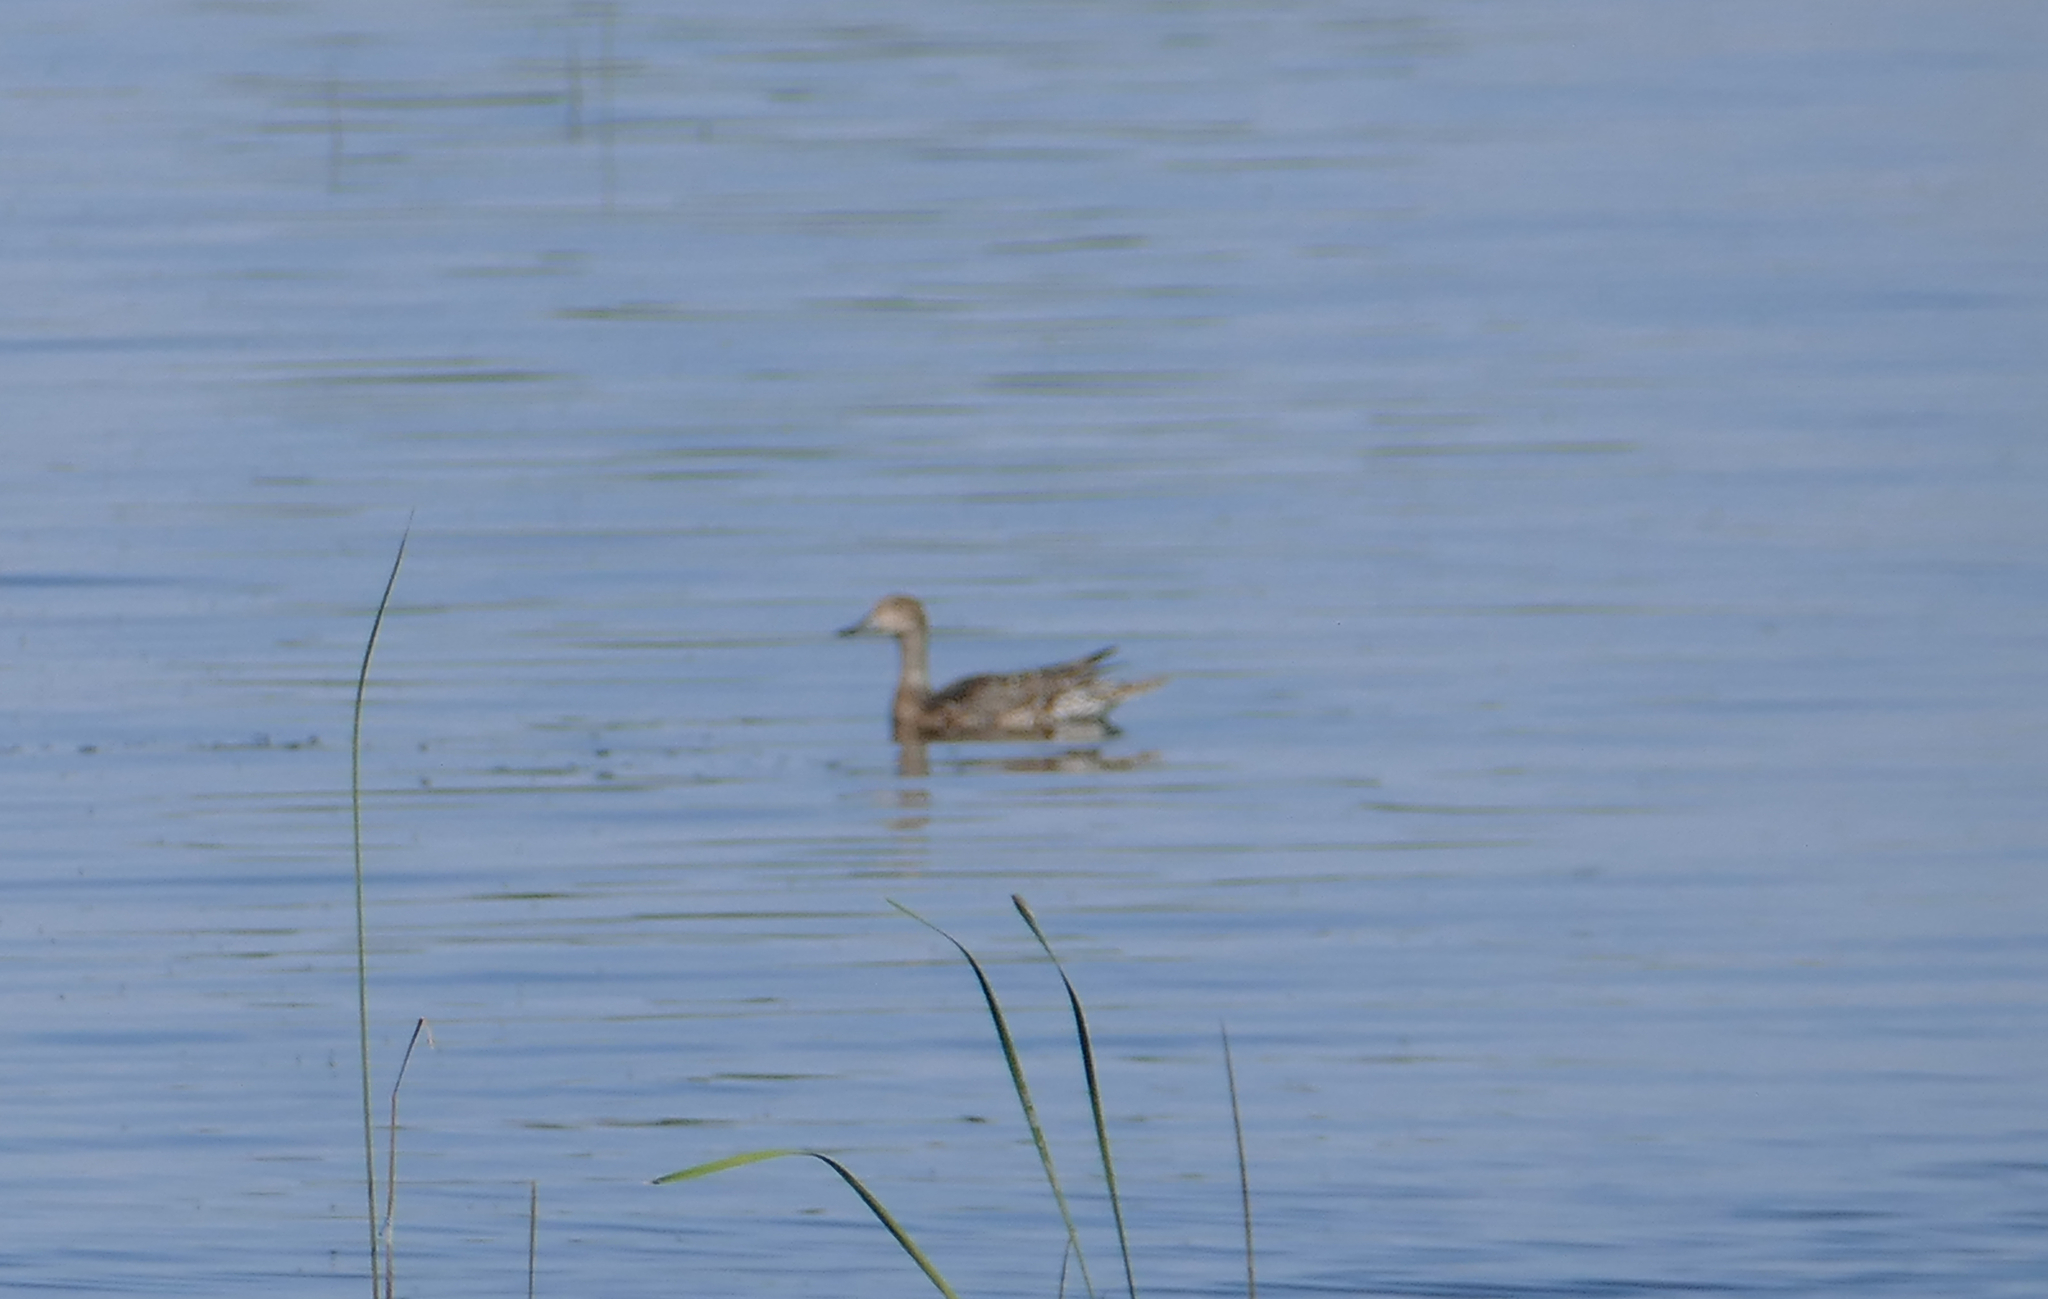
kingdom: Animalia
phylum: Chordata
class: Aves
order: Anseriformes
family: Anatidae
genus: Anas
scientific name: Anas acuta
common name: Northern pintail
